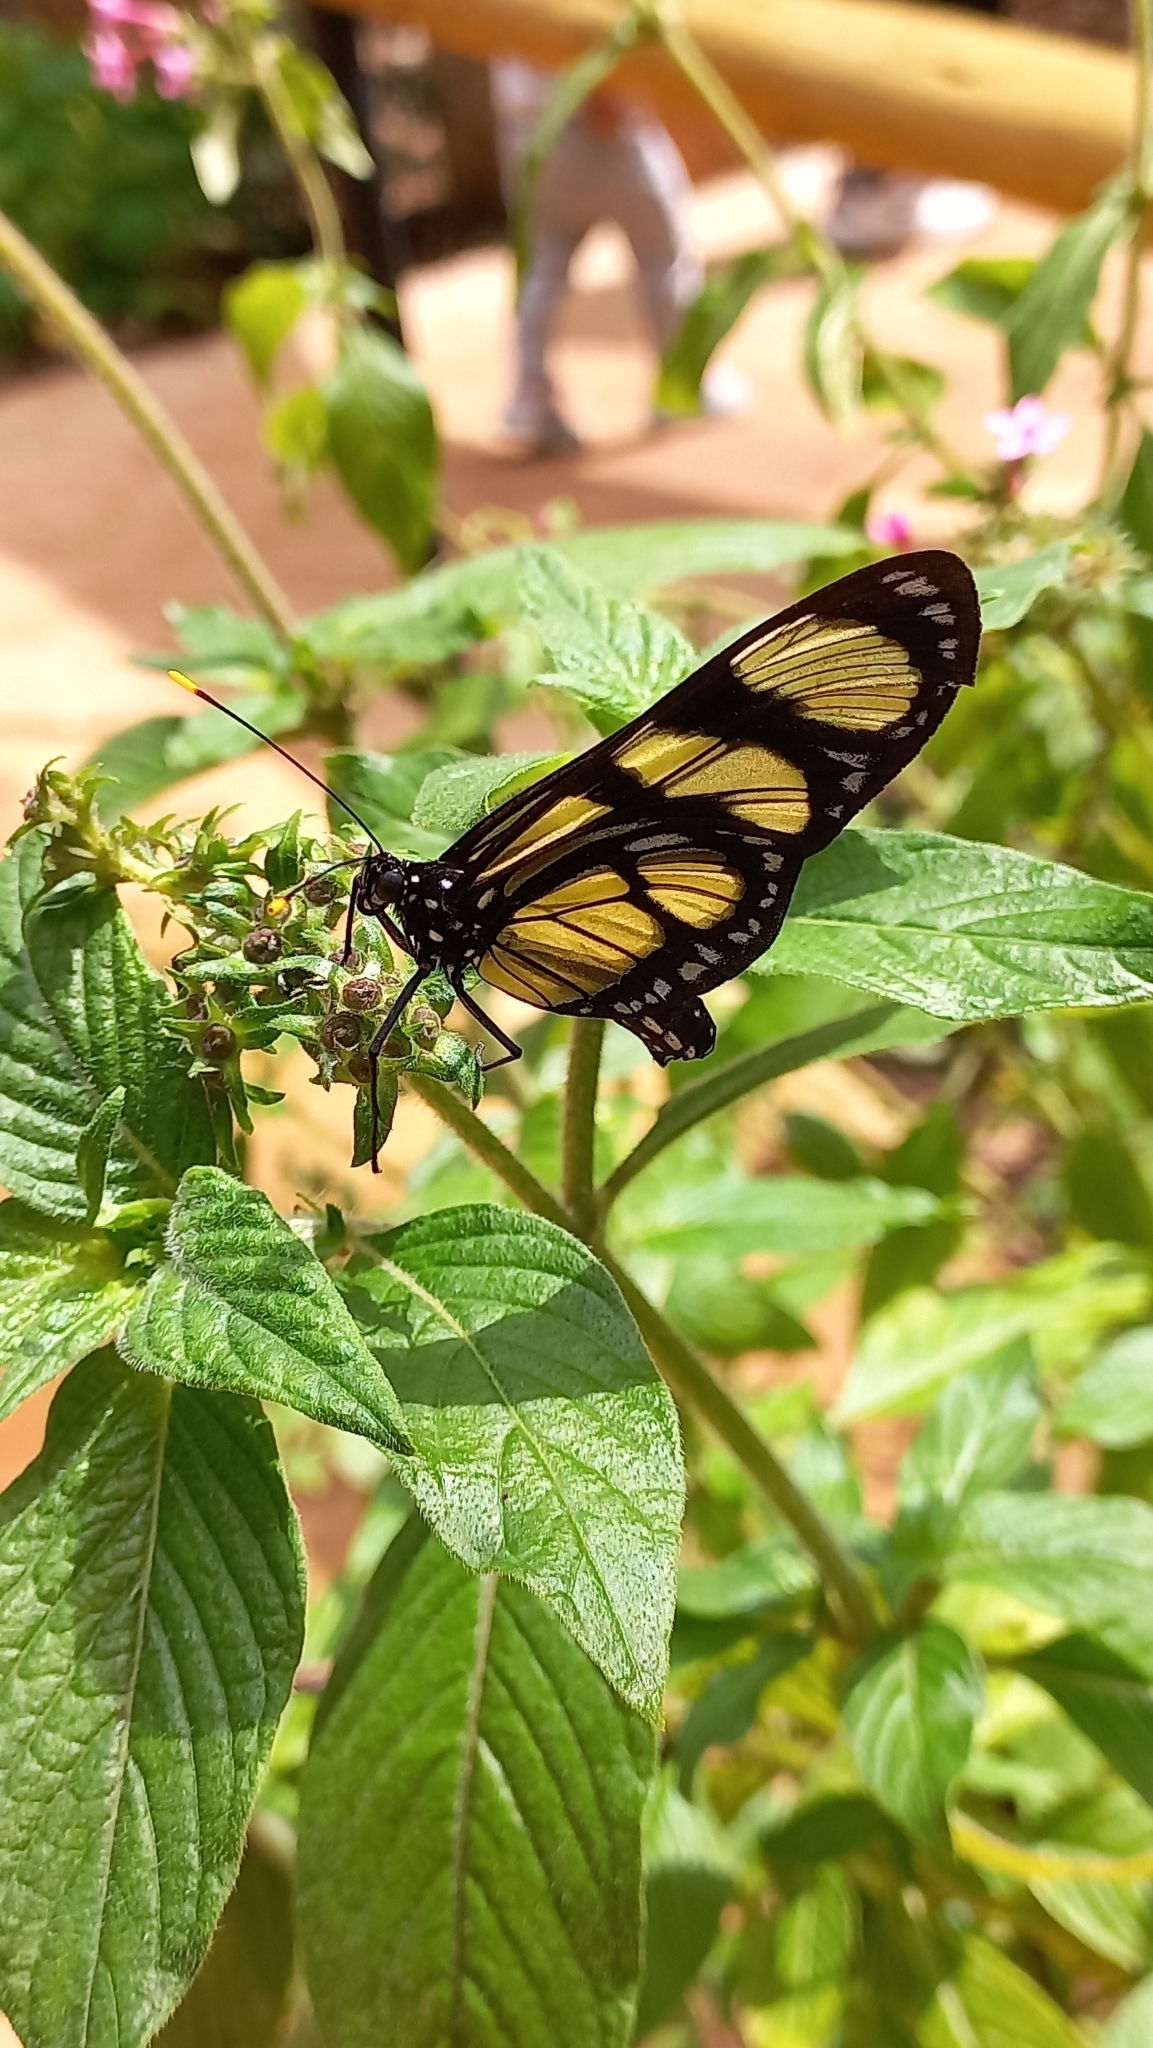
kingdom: Animalia
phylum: Arthropoda
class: Insecta
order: Lepidoptera
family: Nymphalidae
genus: Methona
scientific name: Methona themisto
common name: Themisto amberwing
